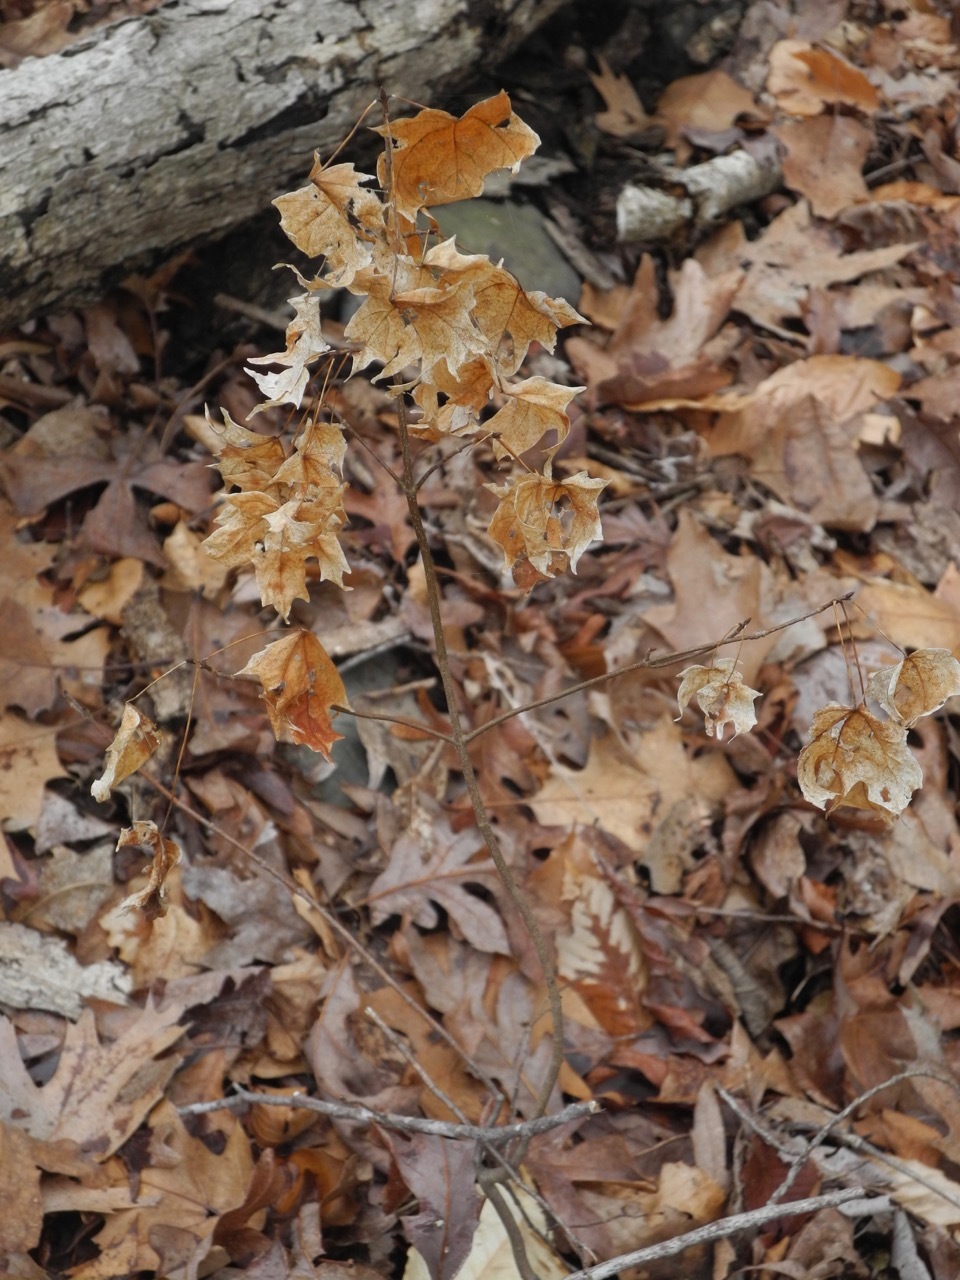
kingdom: Plantae
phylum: Tracheophyta
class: Magnoliopsida
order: Sapindales
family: Sapindaceae
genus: Acer
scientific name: Acer floridanum
